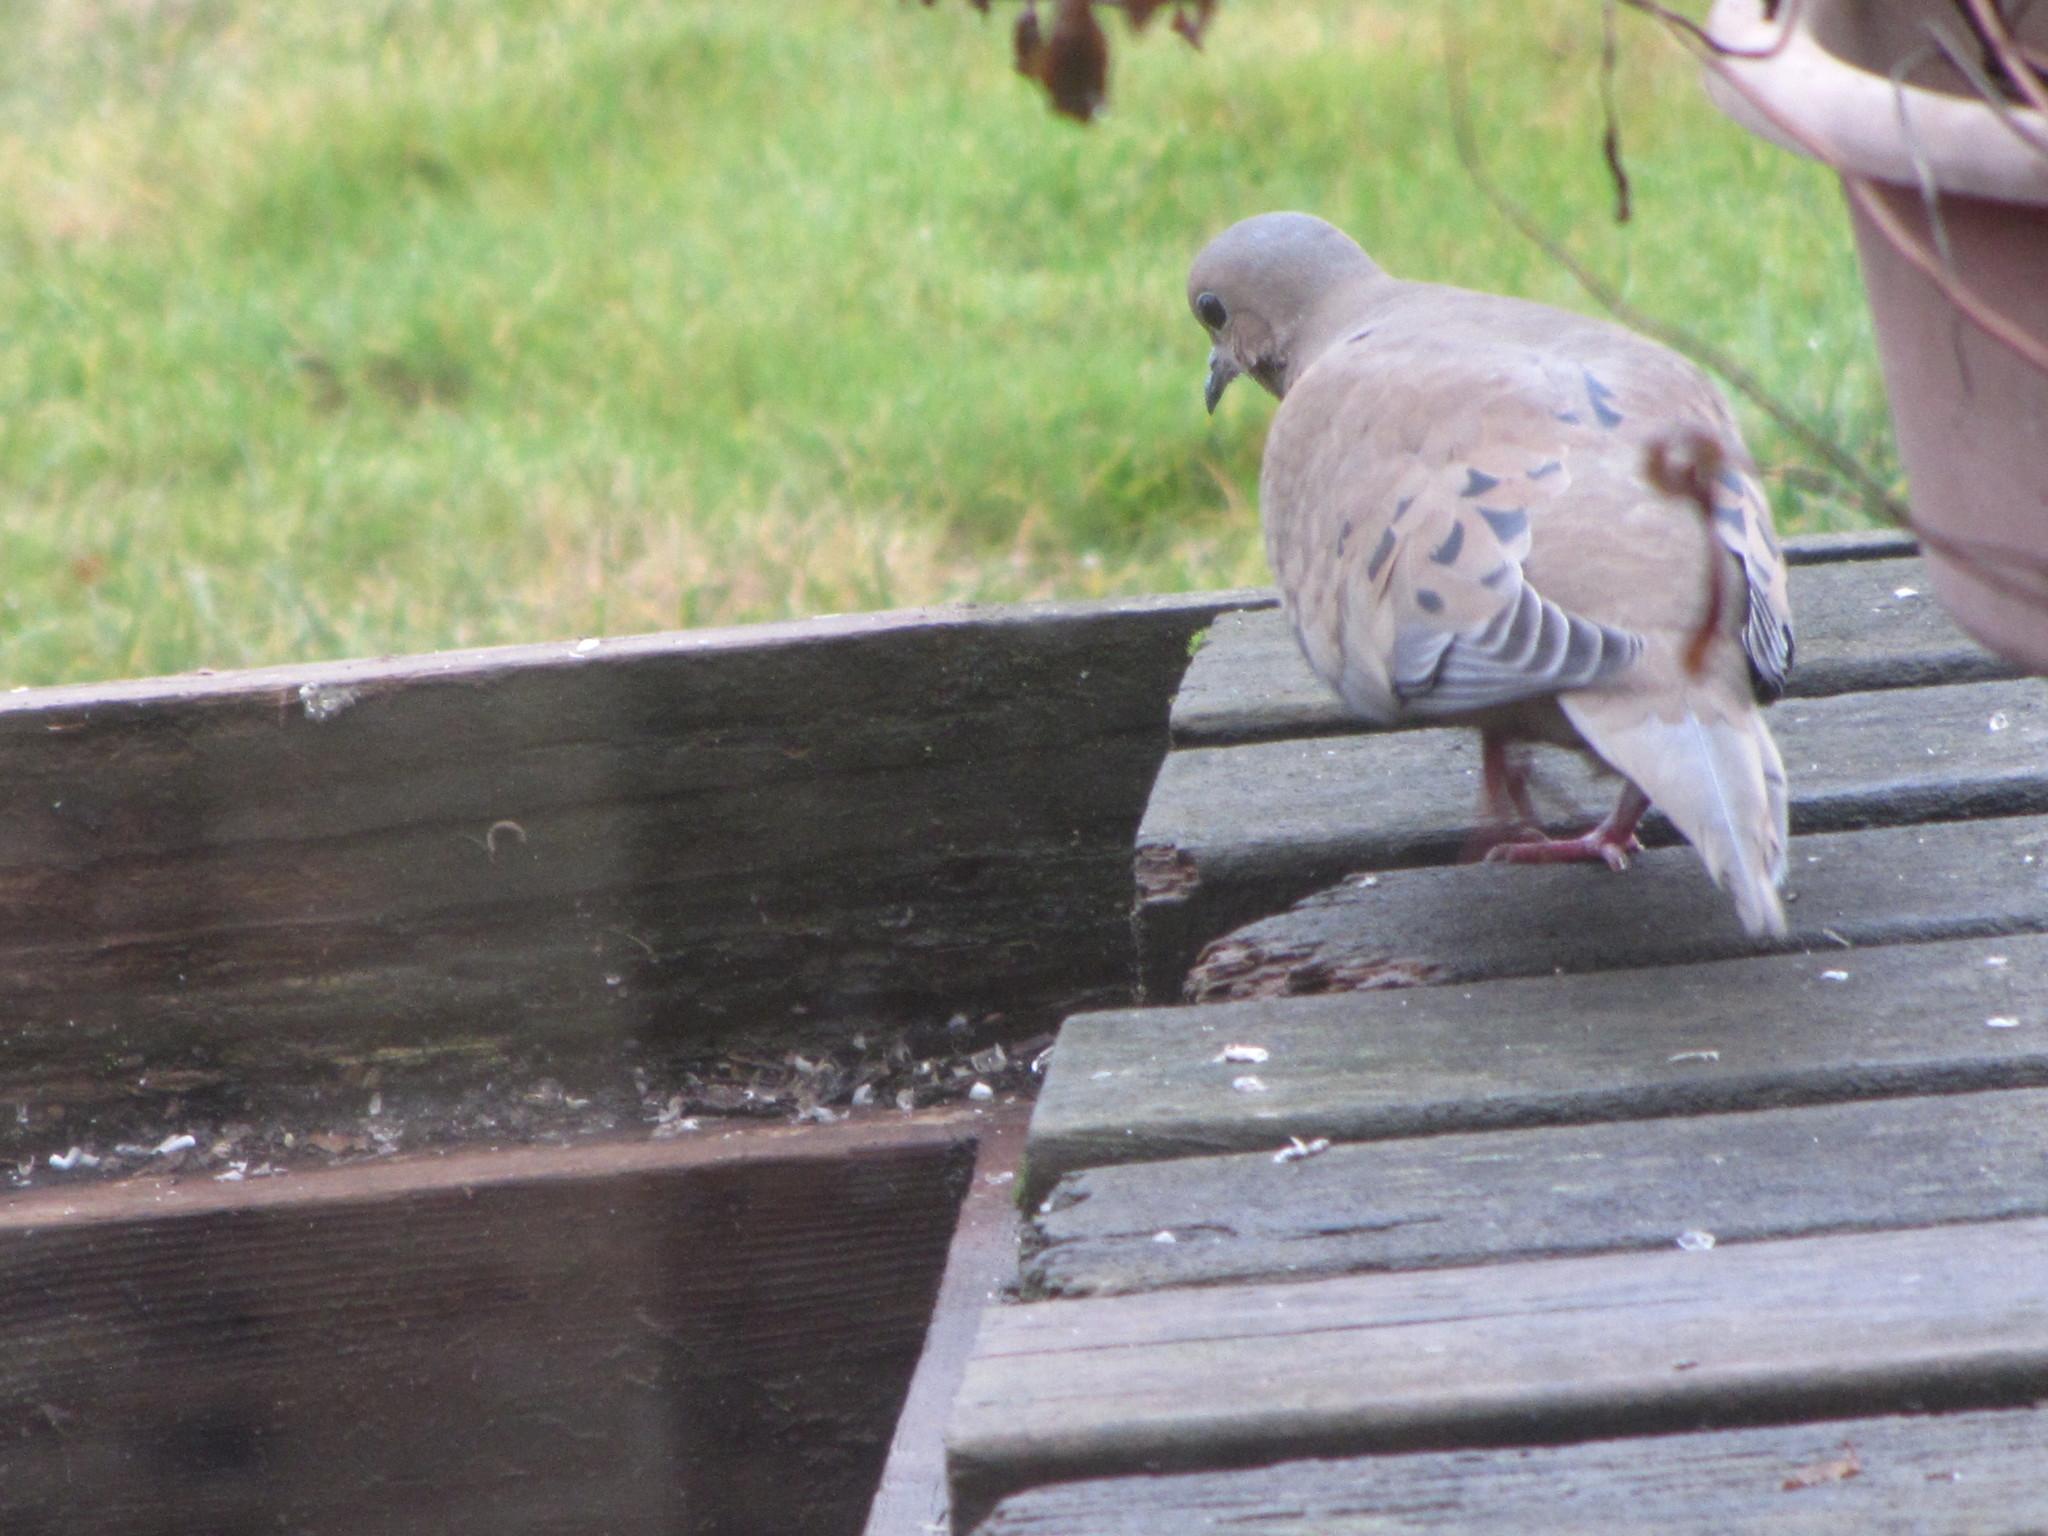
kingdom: Animalia
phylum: Chordata
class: Aves
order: Columbiformes
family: Columbidae
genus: Zenaida
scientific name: Zenaida macroura
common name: Mourning dove
